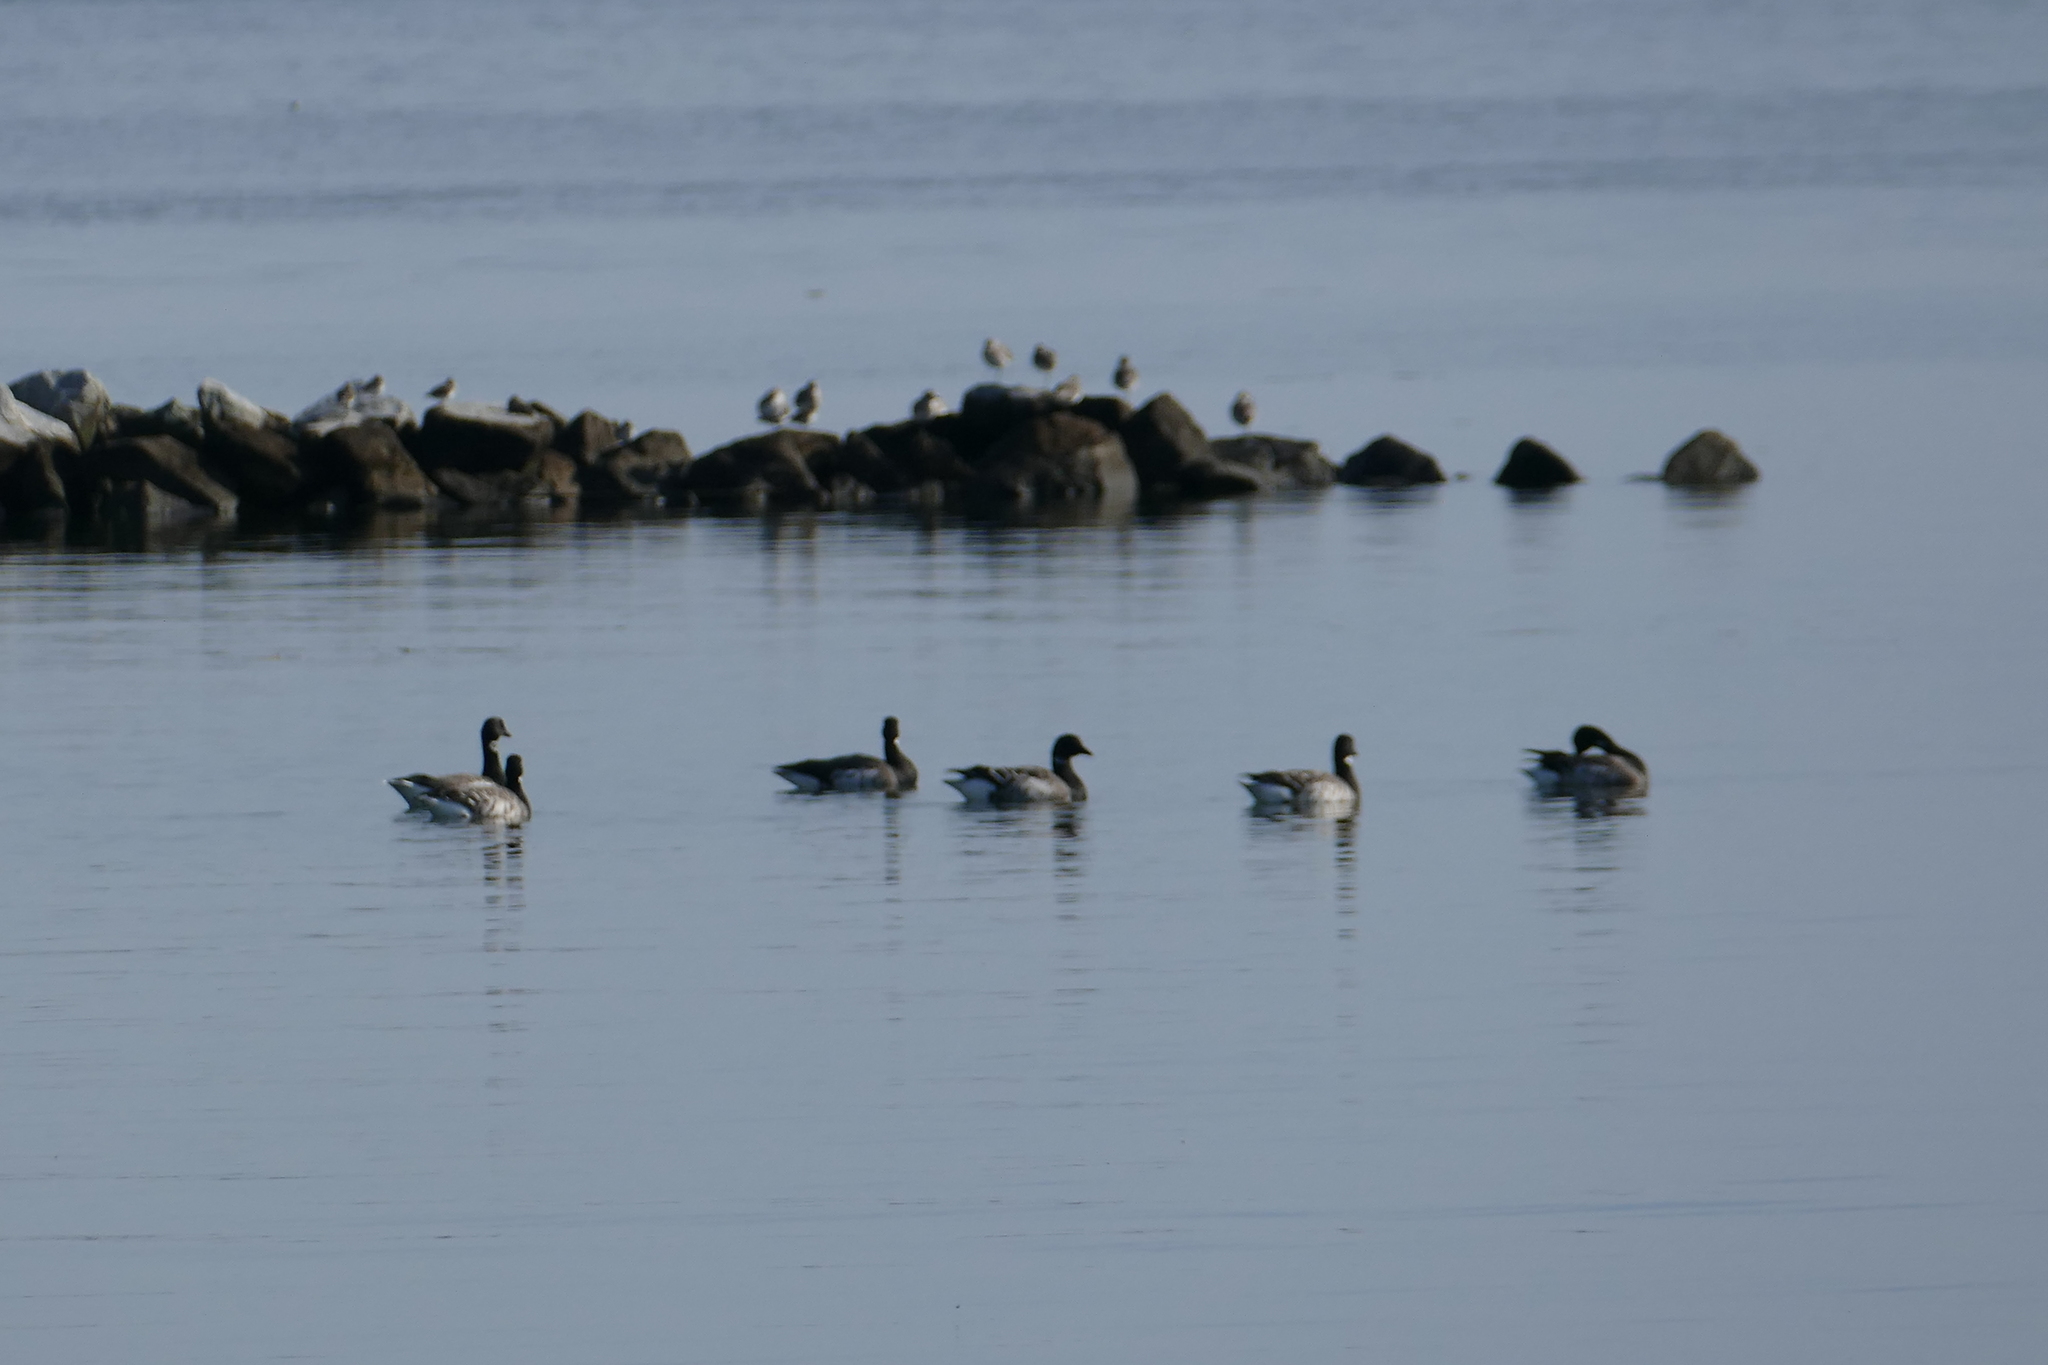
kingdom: Animalia
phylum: Chordata
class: Aves
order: Anseriformes
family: Anatidae
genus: Branta
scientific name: Branta bernicla
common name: Brant goose
